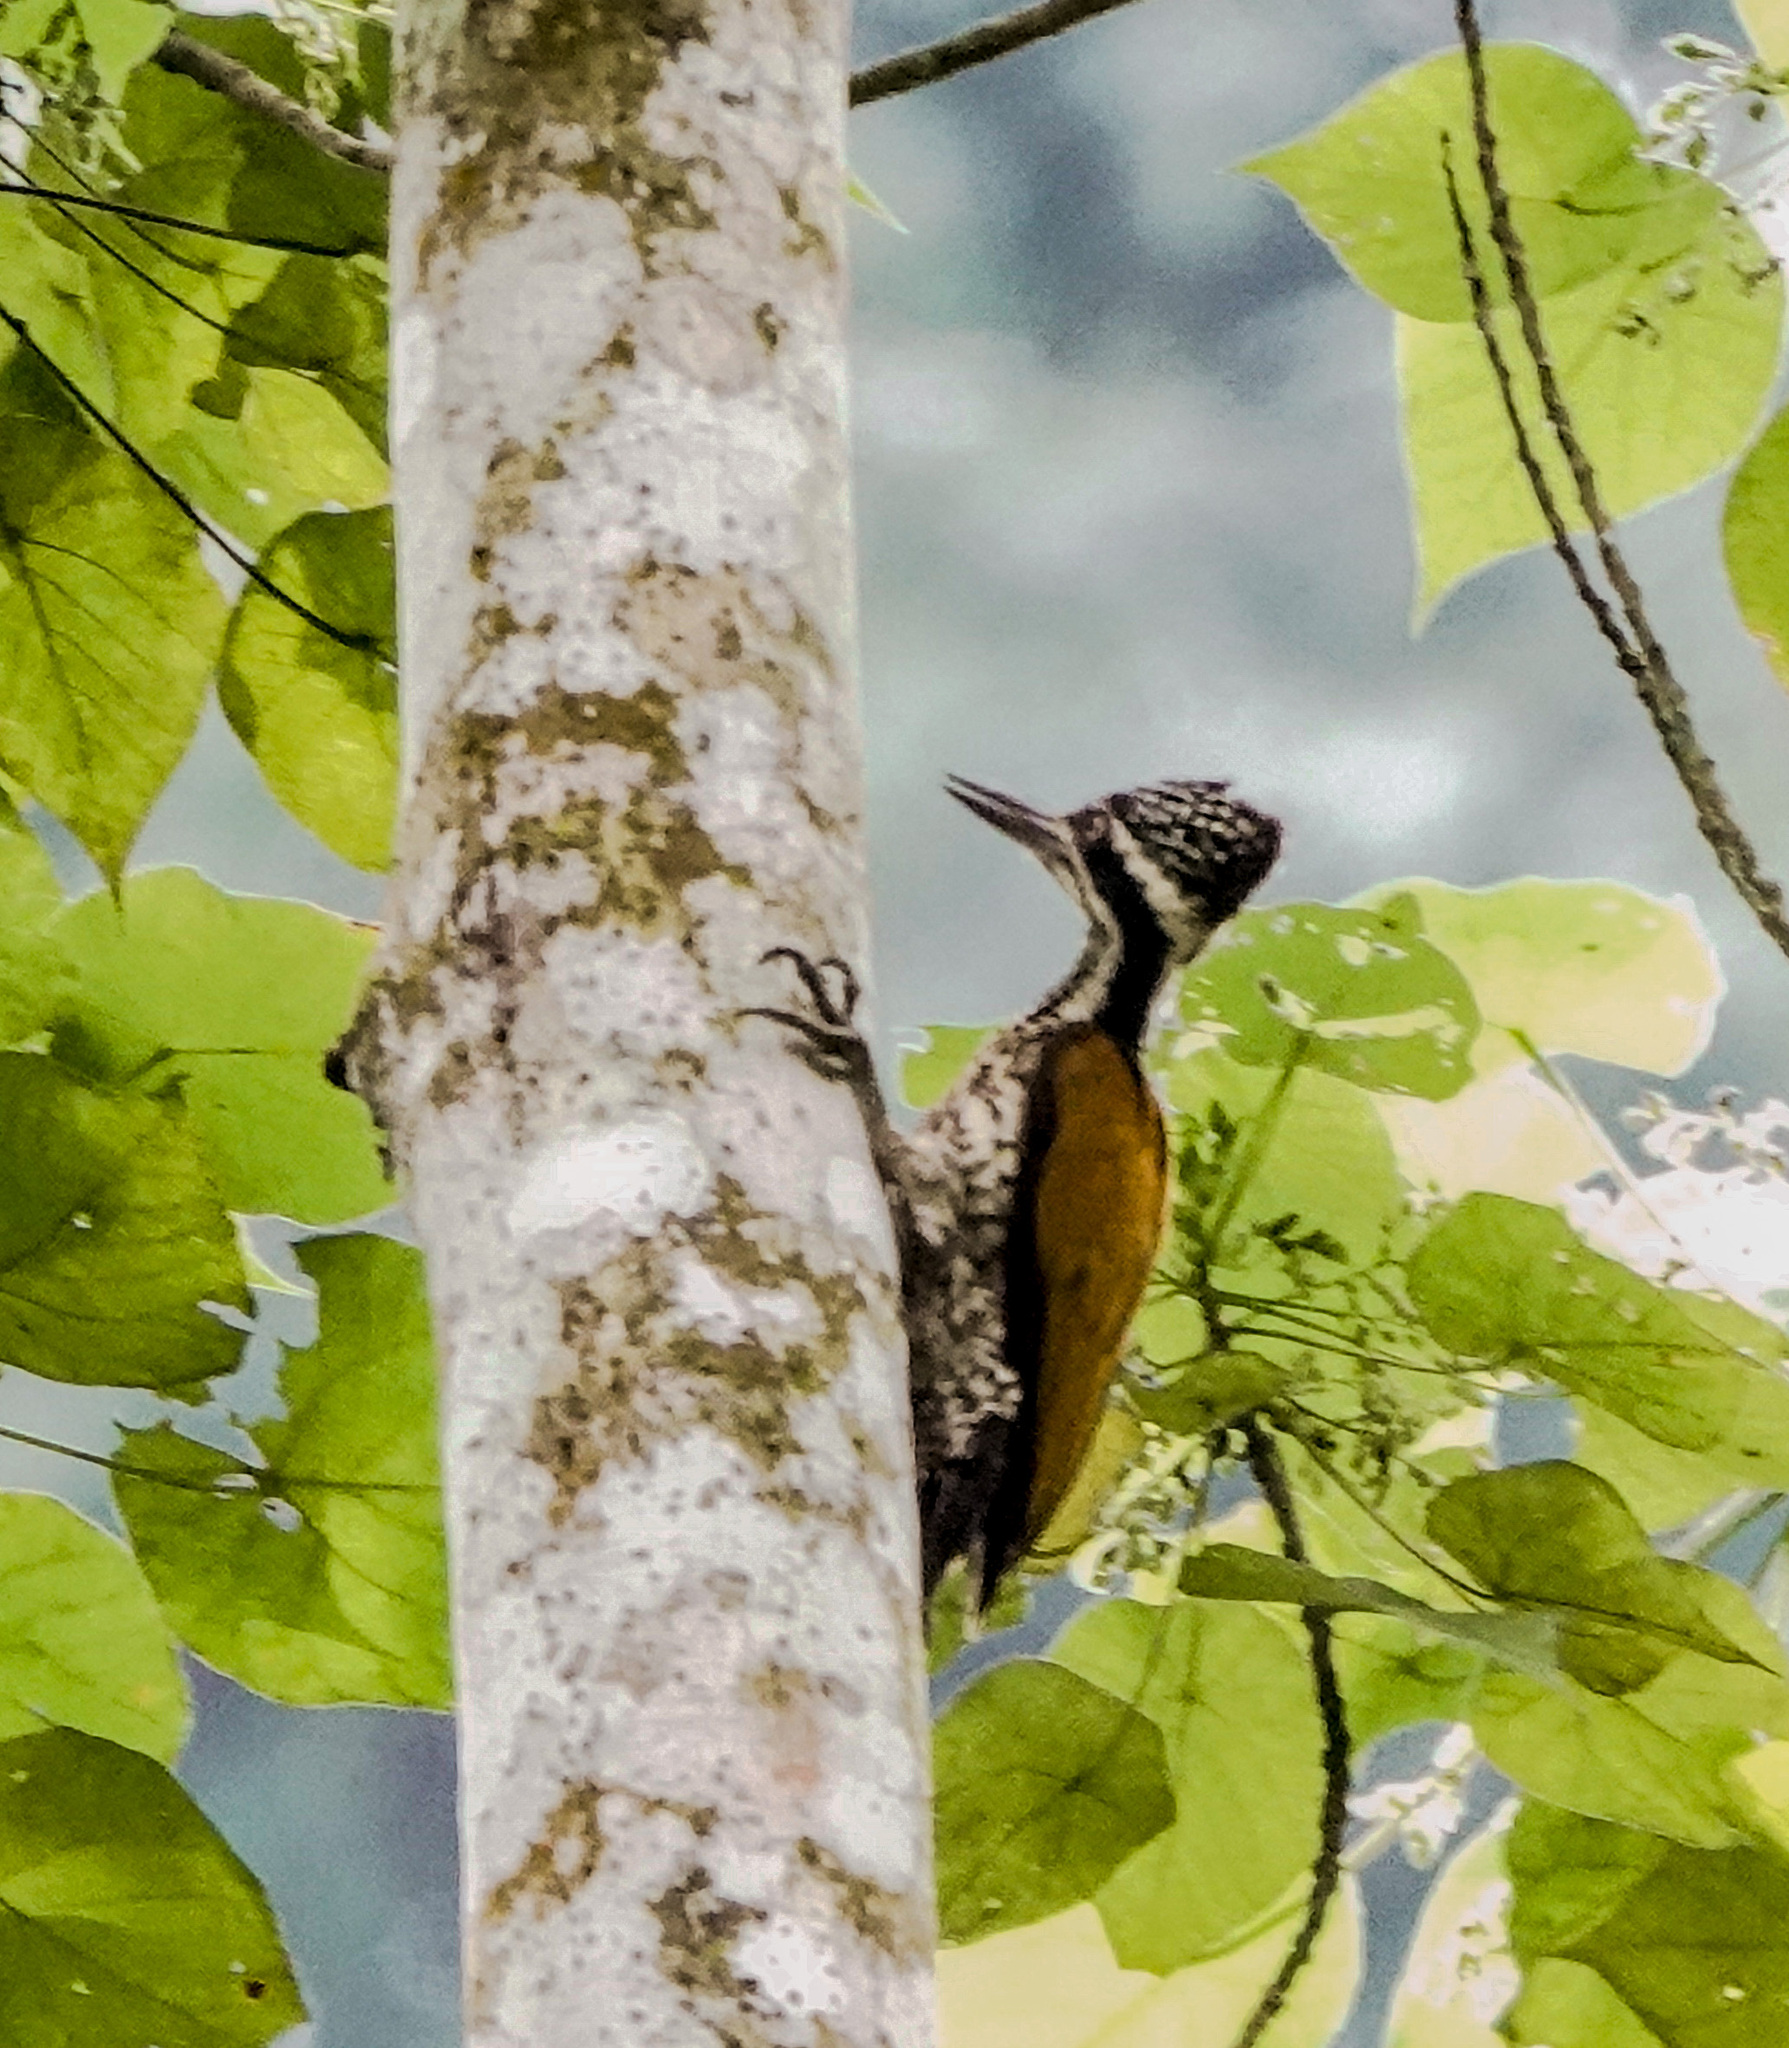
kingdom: Animalia
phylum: Chordata
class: Aves
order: Piciformes
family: Picidae
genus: Chrysocolaptes
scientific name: Chrysocolaptes guttacristatus
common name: Greater flameback
